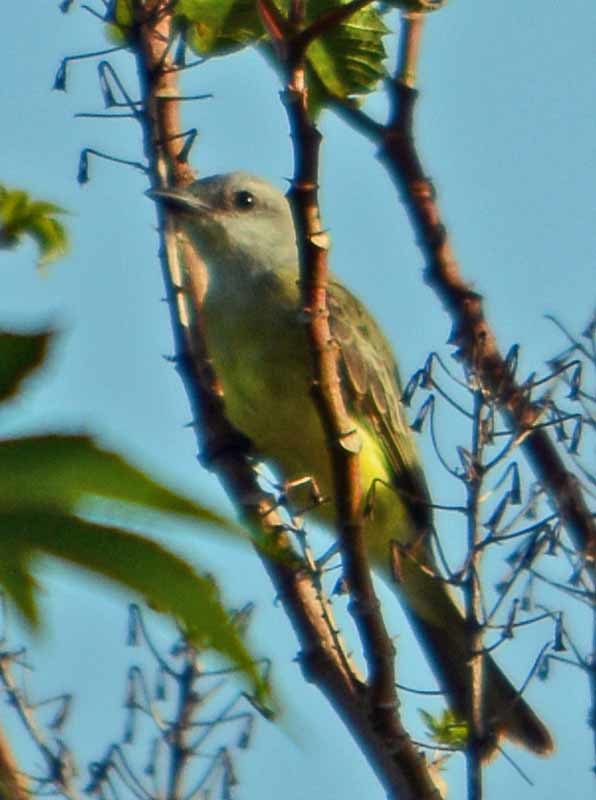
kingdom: Animalia
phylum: Chordata
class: Aves
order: Passeriformes
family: Tyrannidae
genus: Tyrannus
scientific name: Tyrannus
